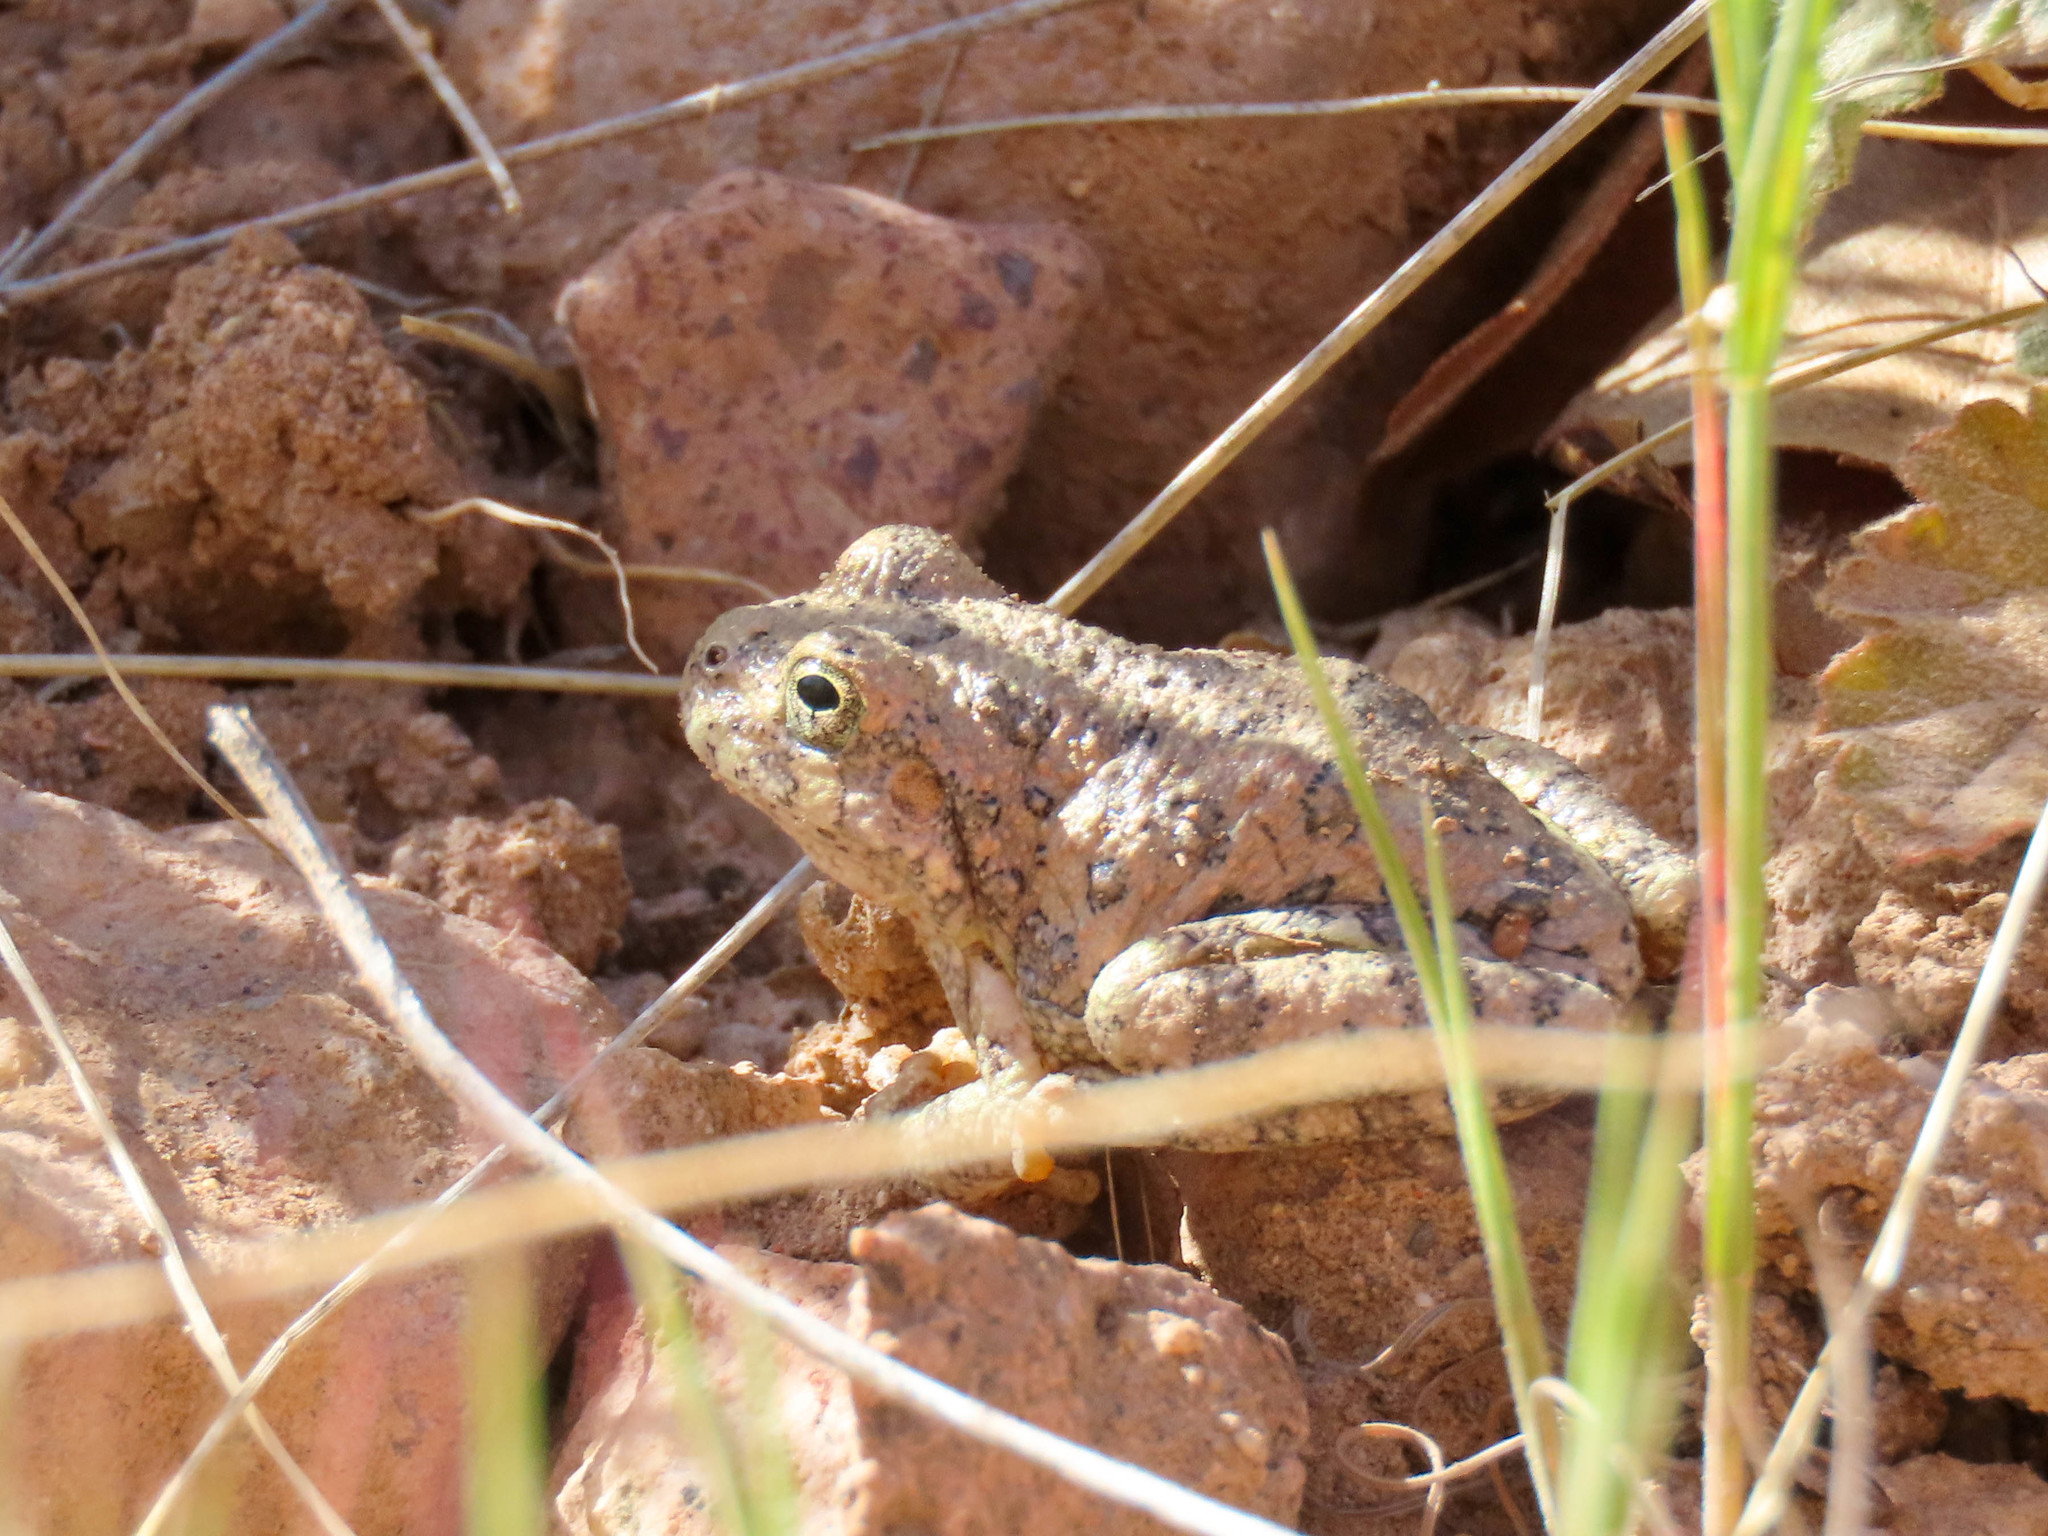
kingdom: Animalia
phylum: Chordata
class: Amphibia
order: Anura
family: Hylidae
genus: Dryophytes
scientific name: Dryophytes arenicolor
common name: Canyon treefrog
